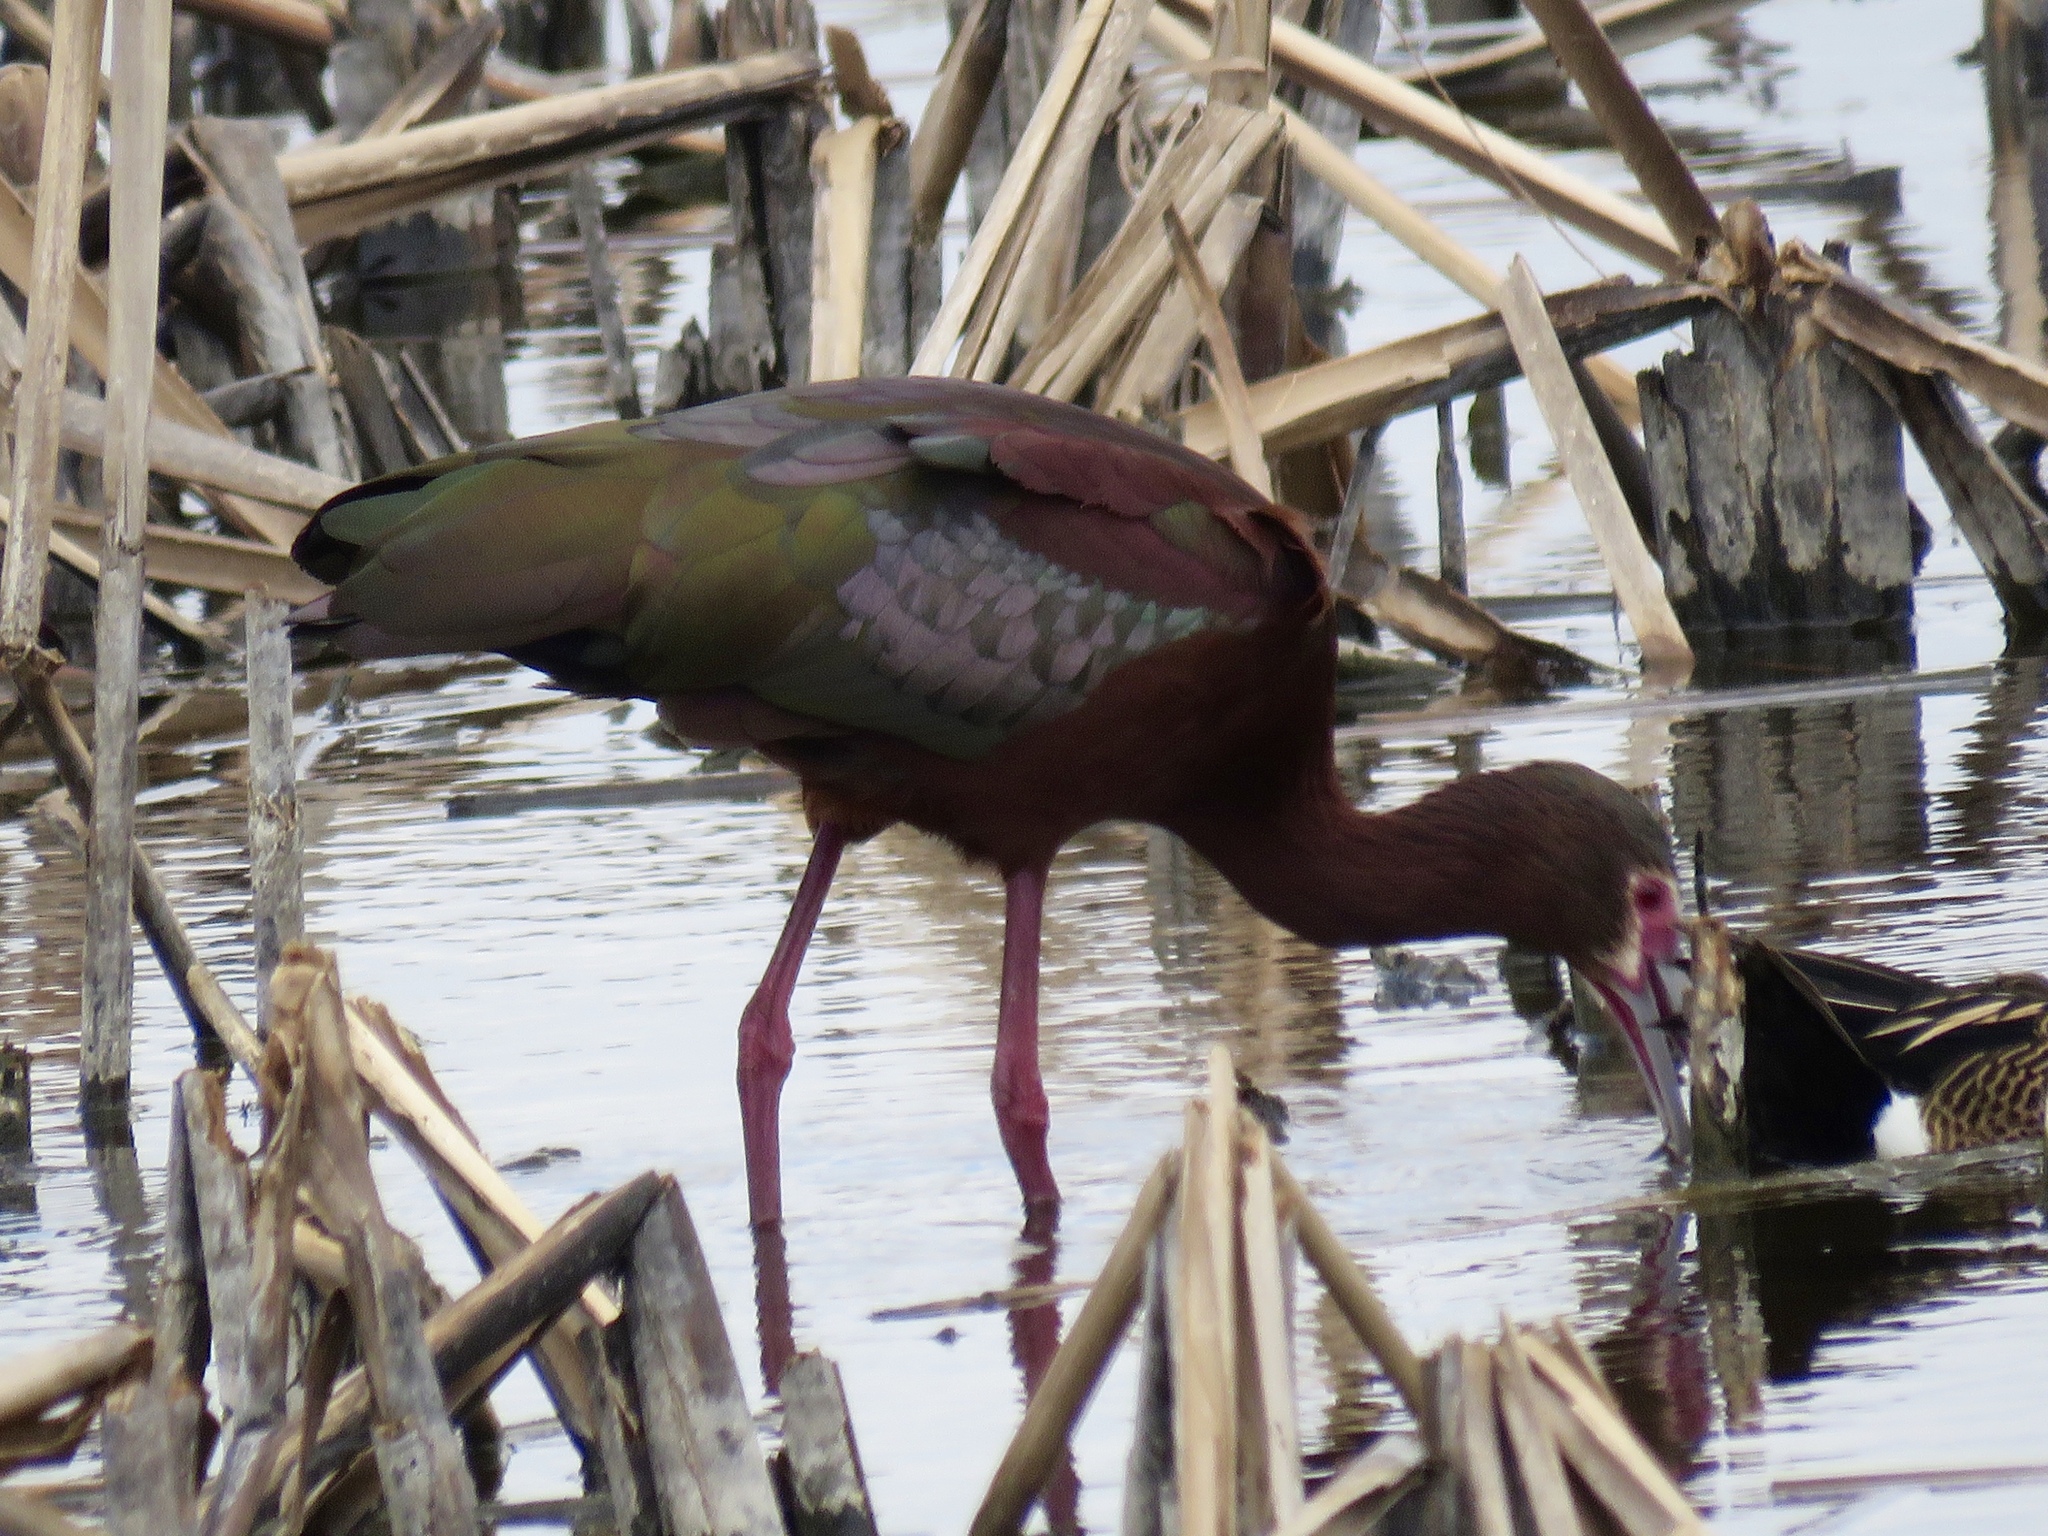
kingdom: Animalia
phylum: Chordata
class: Aves
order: Pelecaniformes
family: Threskiornithidae
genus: Plegadis
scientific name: Plegadis chihi
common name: White-faced ibis
